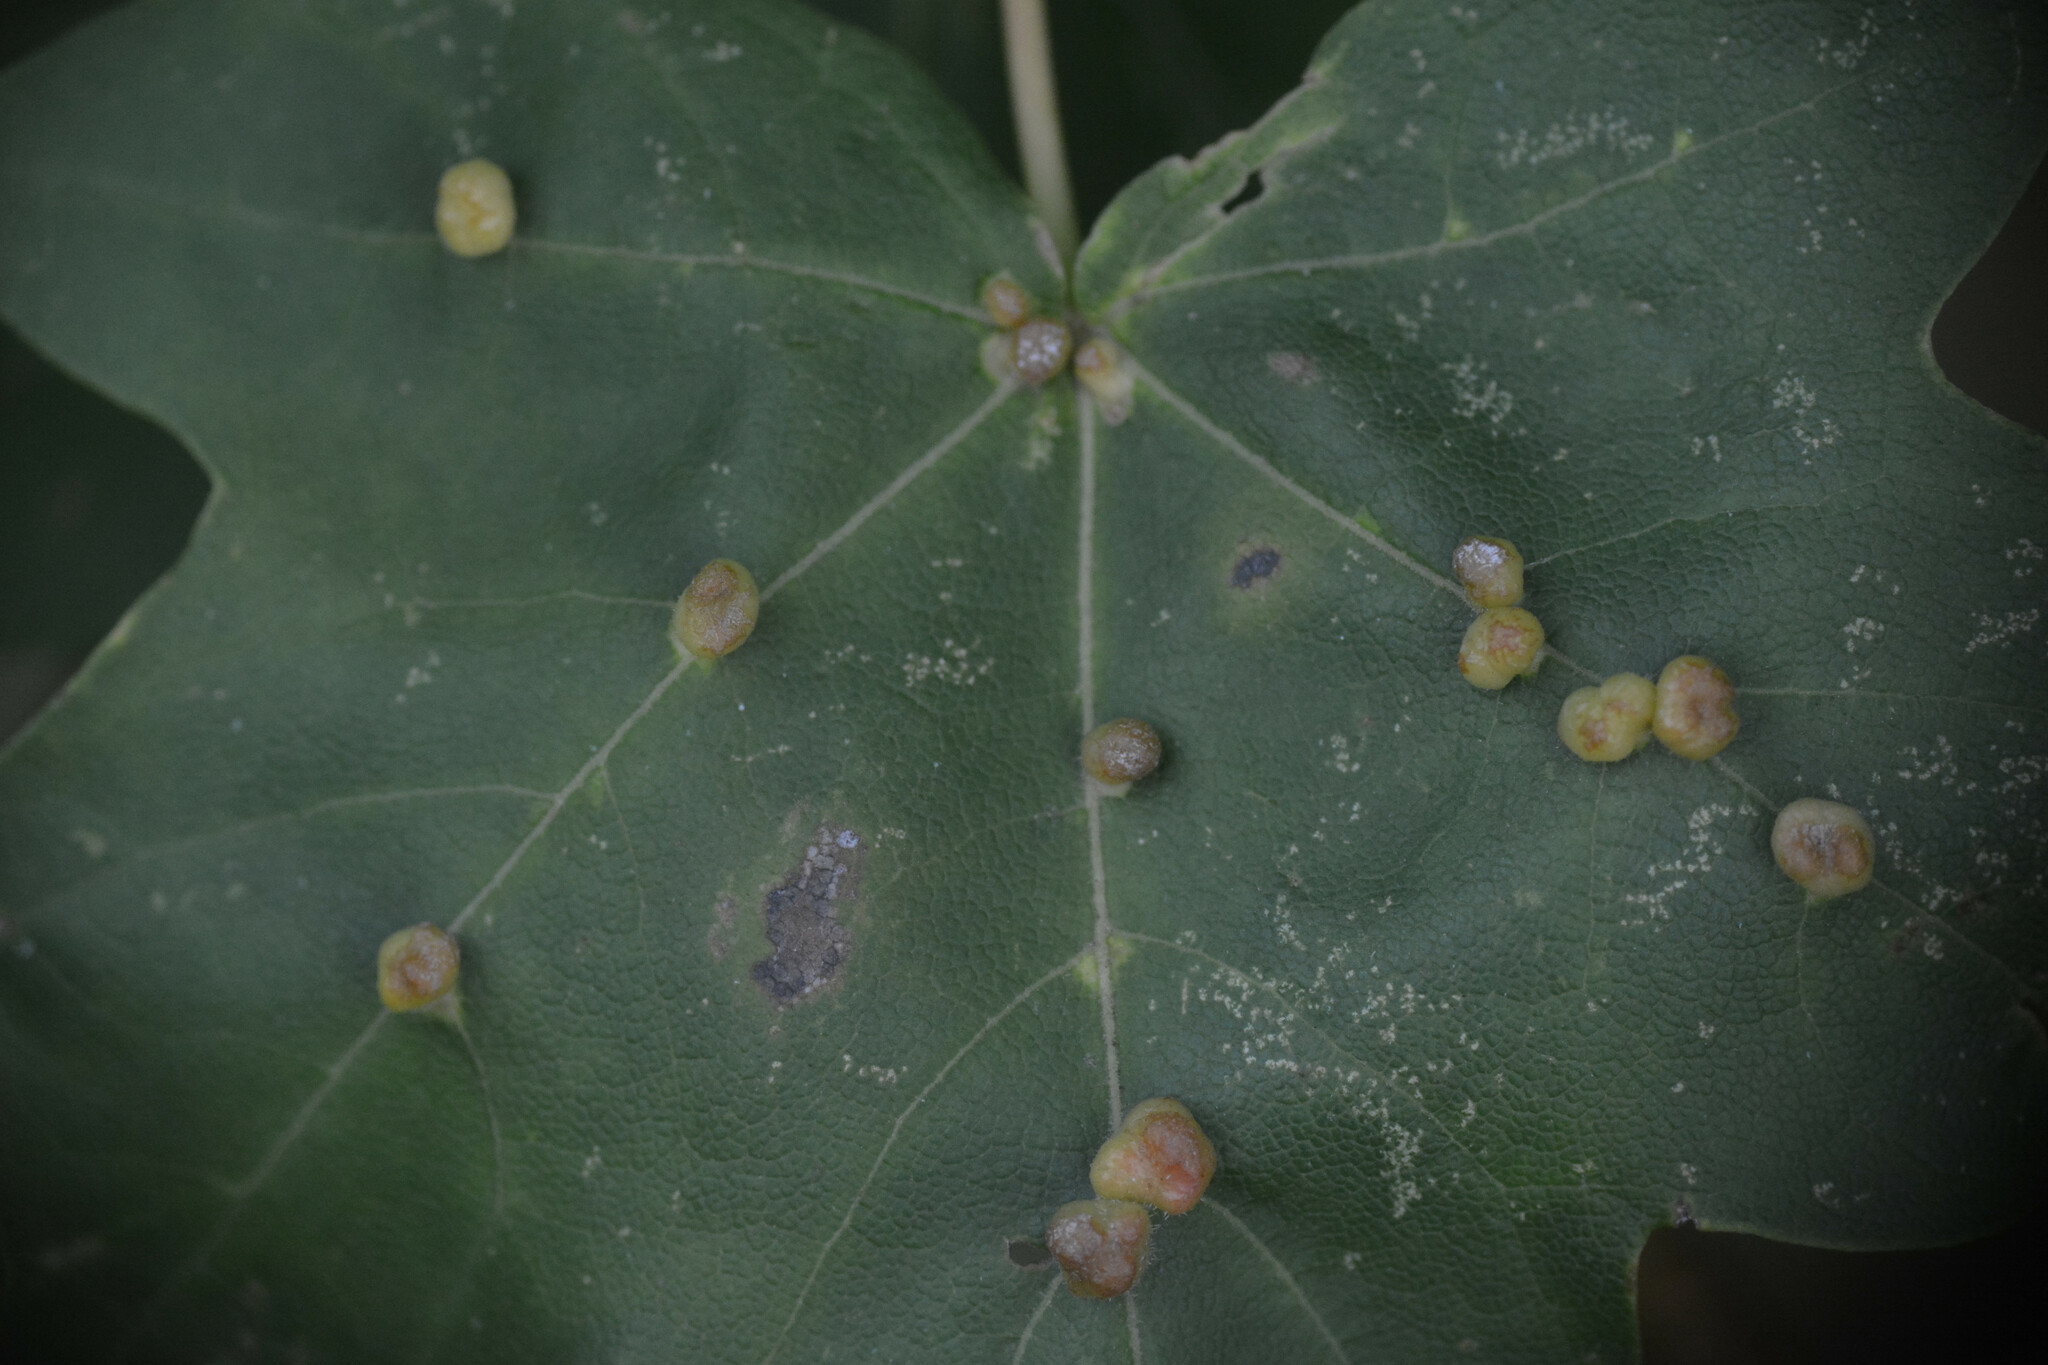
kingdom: Animalia
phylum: Arthropoda
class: Arachnida
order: Trombidiformes
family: Eriophyidae
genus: Aceria
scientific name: Aceria macrochelus
